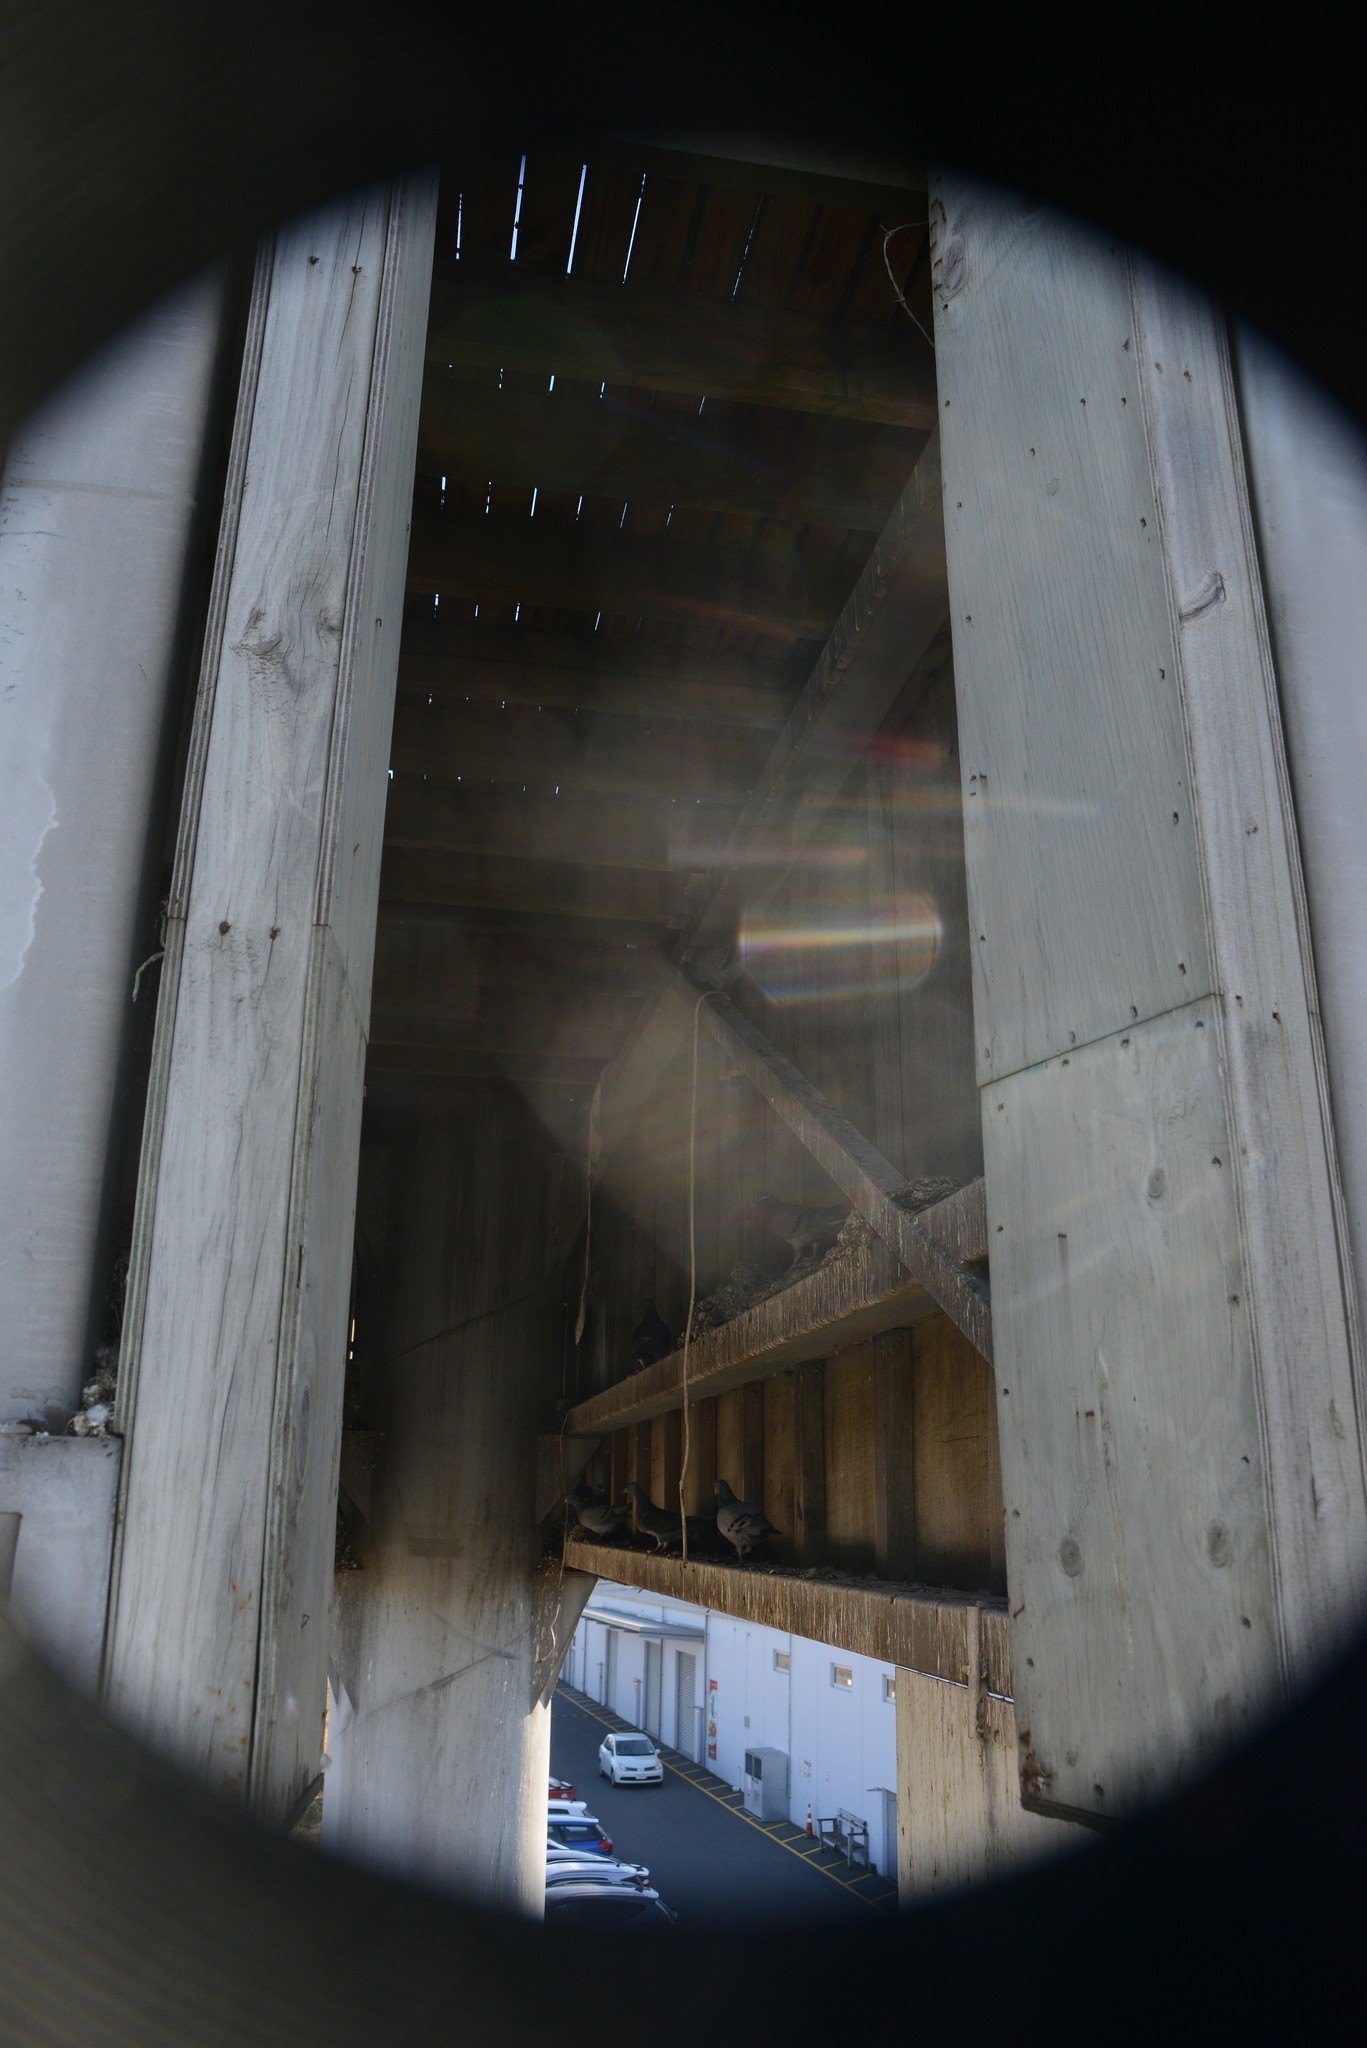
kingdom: Animalia
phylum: Chordata
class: Aves
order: Columbiformes
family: Columbidae
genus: Columba
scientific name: Columba livia
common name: Rock pigeon
